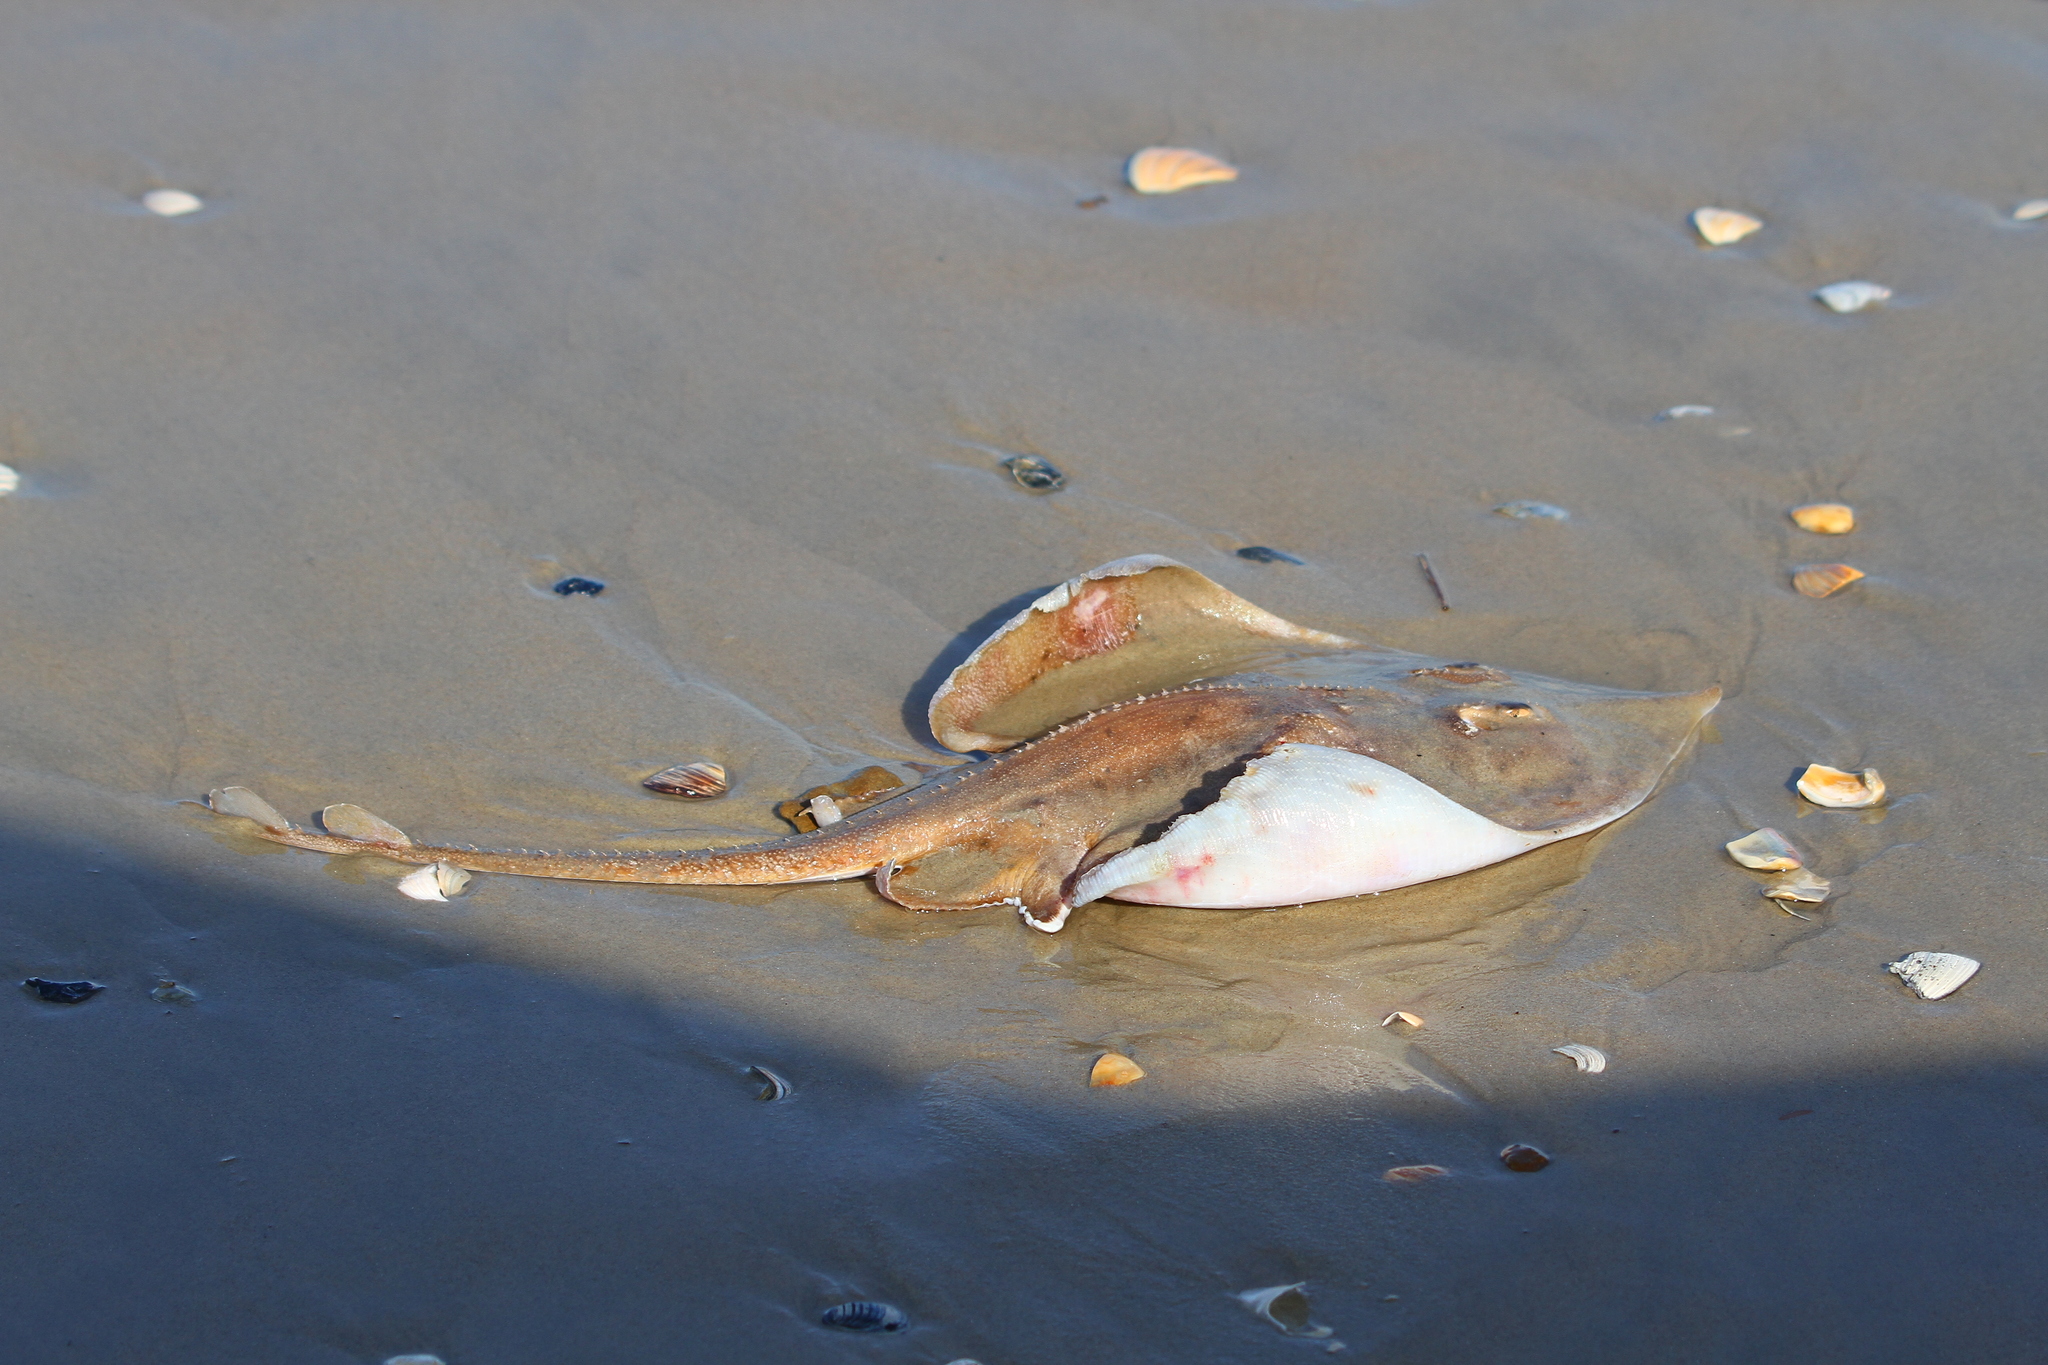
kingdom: Animalia
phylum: Chordata
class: Elasmobranchii
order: Rajiformes
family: Rajidae
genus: Raja
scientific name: Raja eglanteria
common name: Clearnose skate
